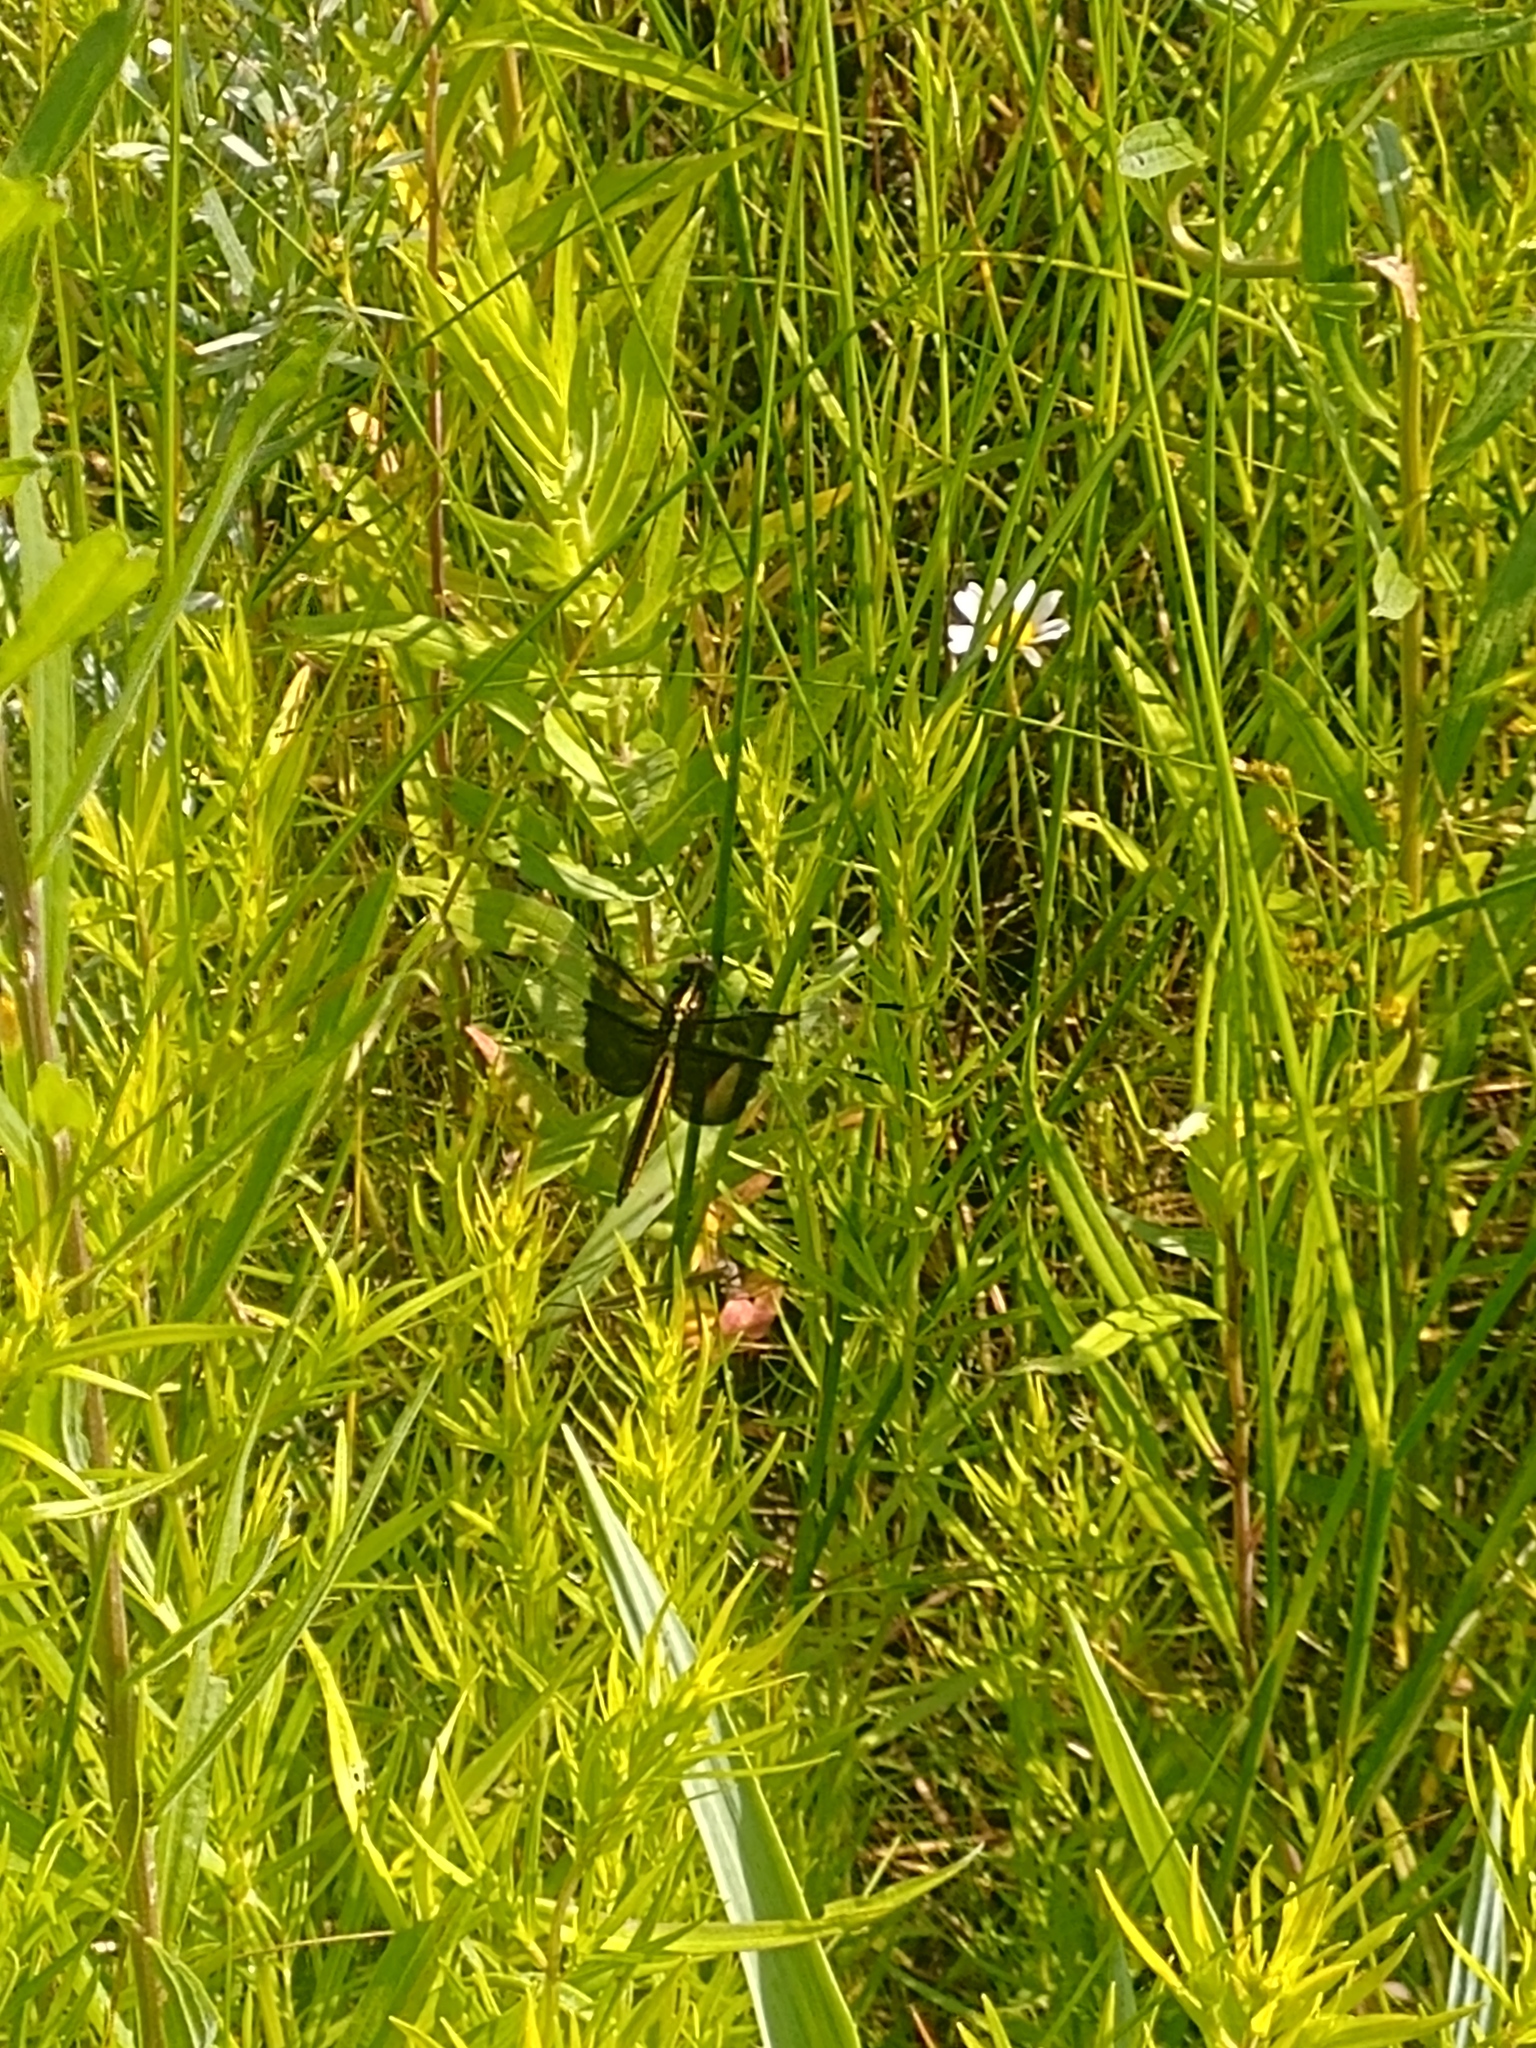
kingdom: Animalia
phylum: Arthropoda
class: Insecta
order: Odonata
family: Libellulidae
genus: Libellula
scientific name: Libellula luctuosa
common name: Widow skimmer
